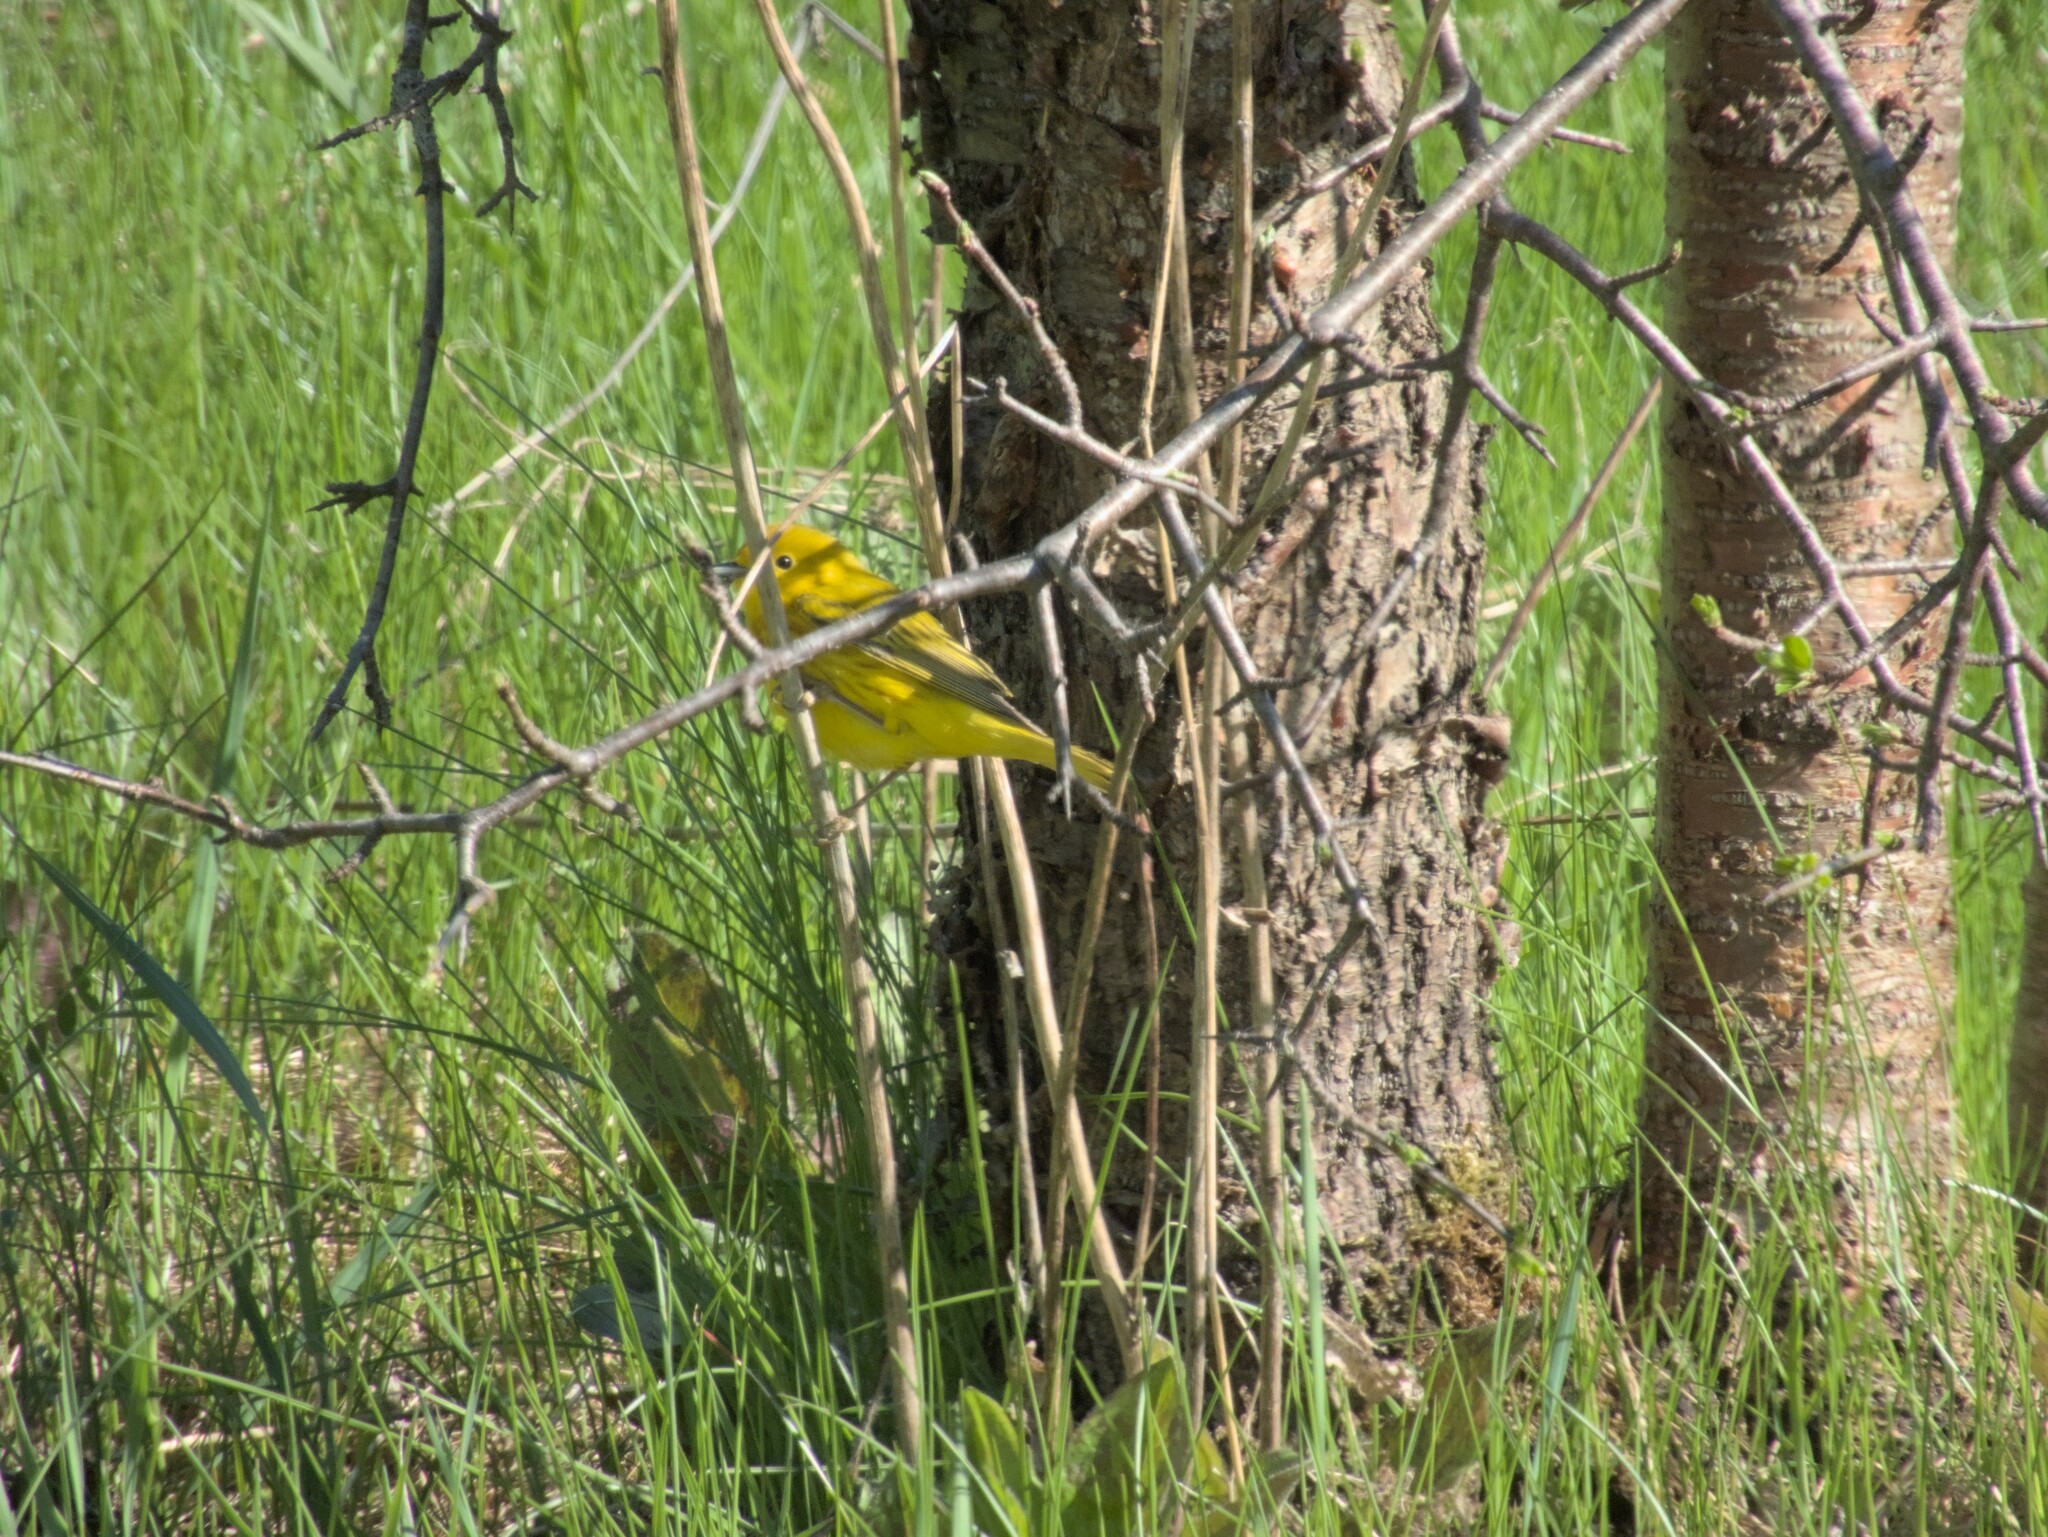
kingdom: Animalia
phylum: Chordata
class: Aves
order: Passeriformes
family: Parulidae
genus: Setophaga
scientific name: Setophaga petechia
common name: Yellow warbler
